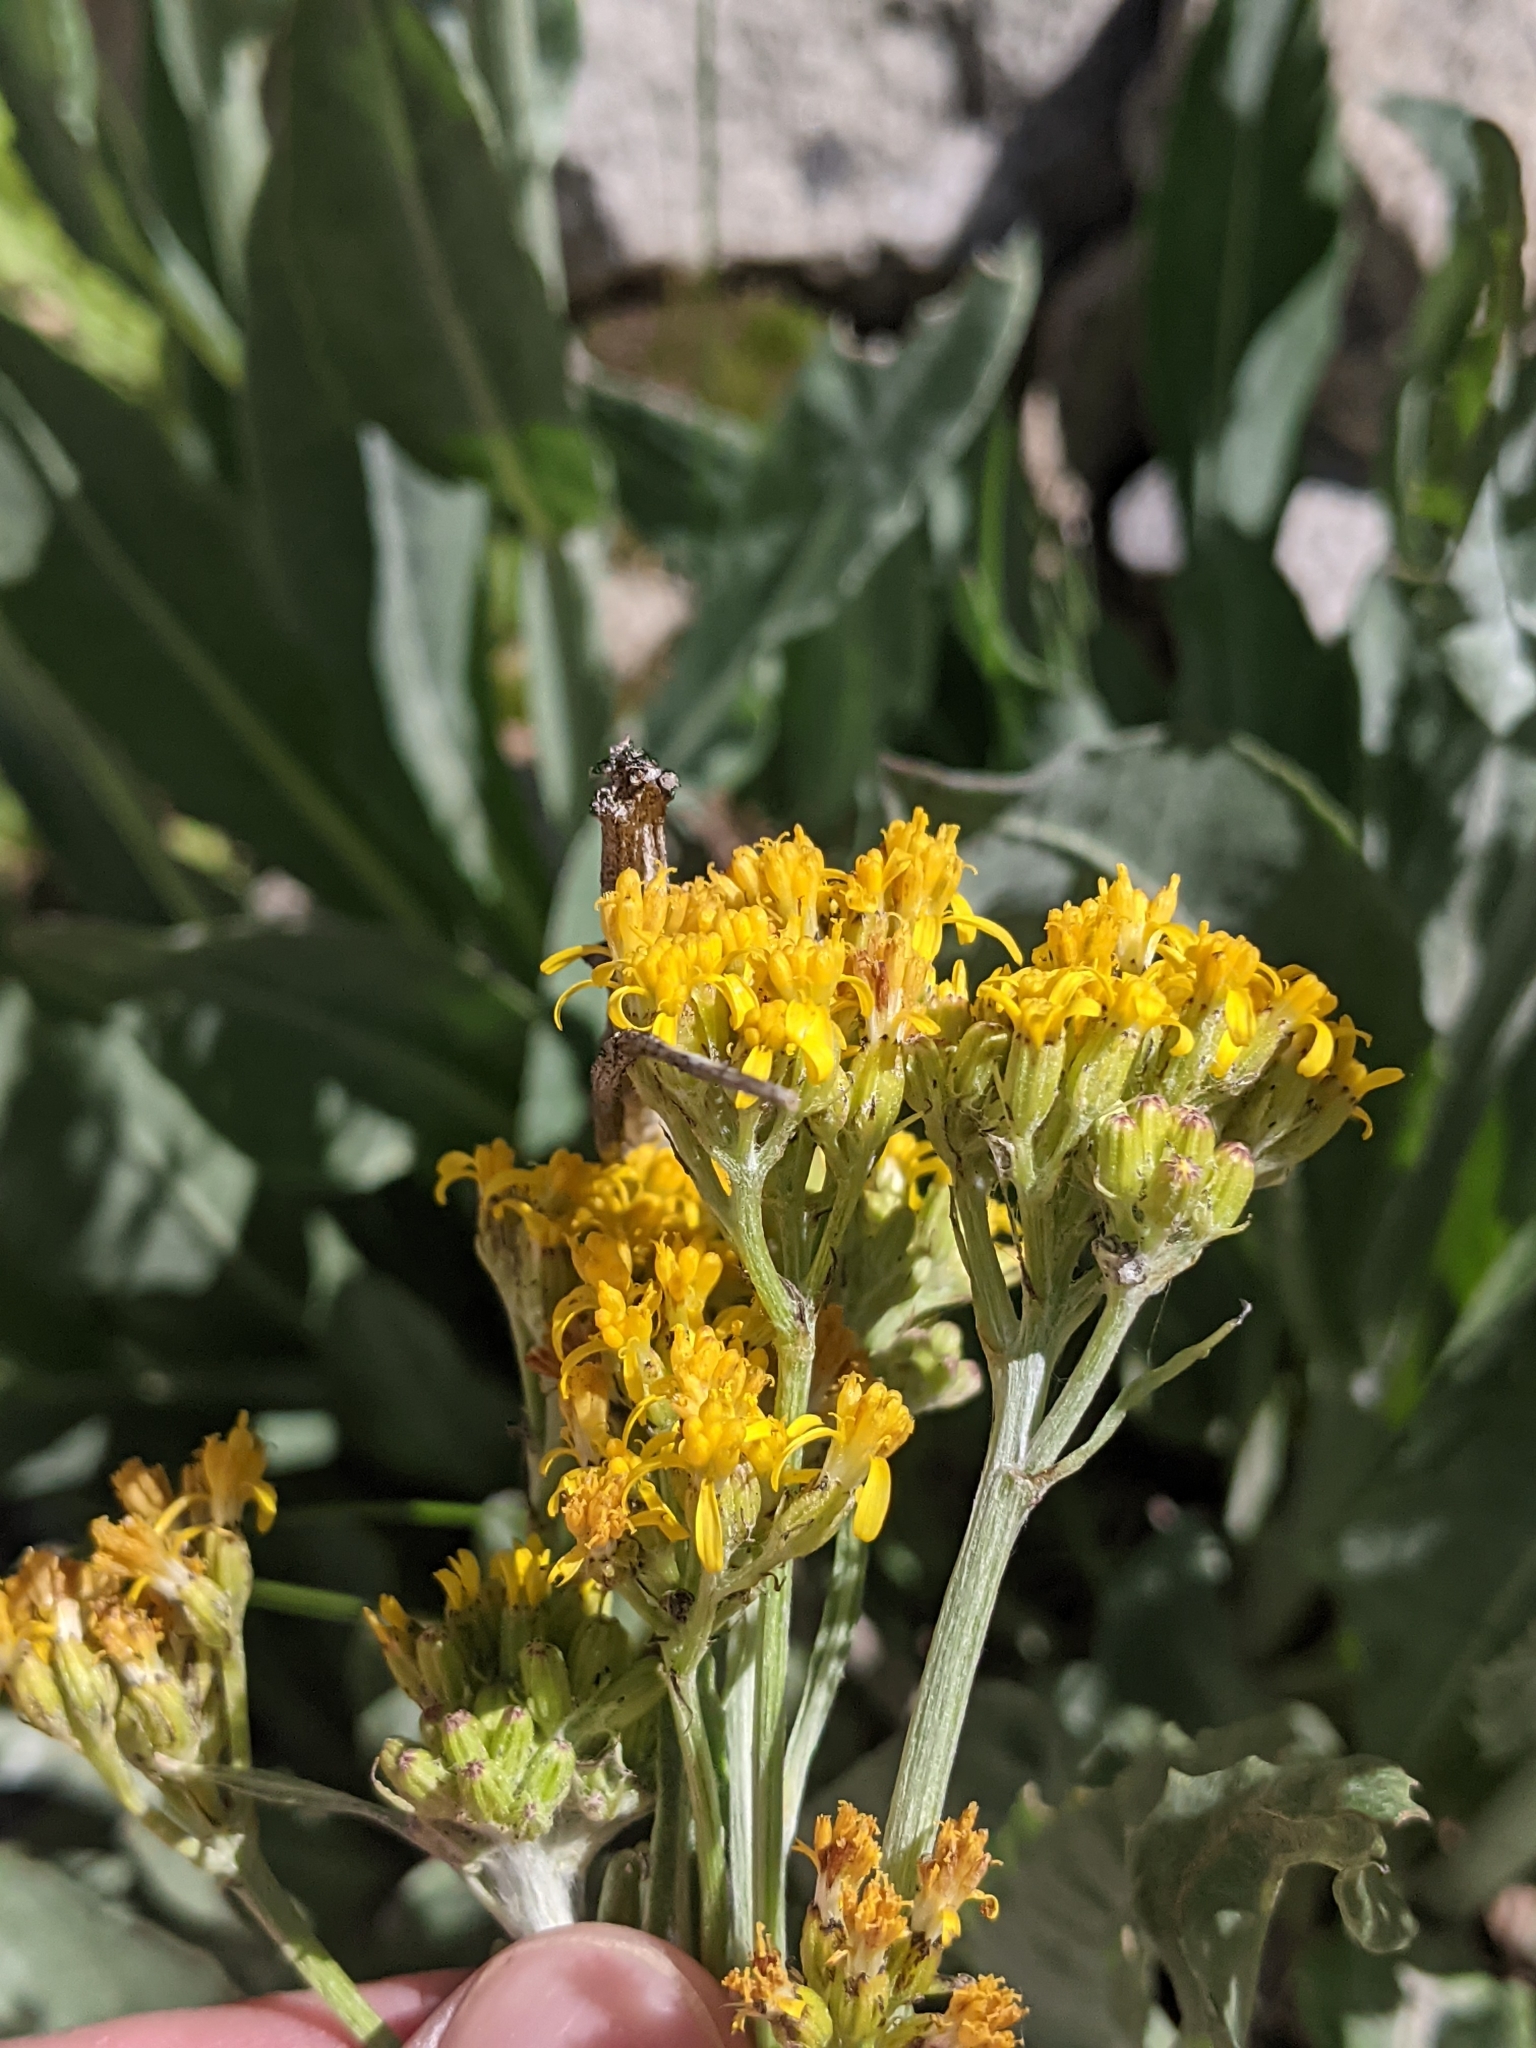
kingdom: Plantae
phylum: Tracheophyta
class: Magnoliopsida
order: Asterales
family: Asteraceae
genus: Senecio
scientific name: Senecio atratus
